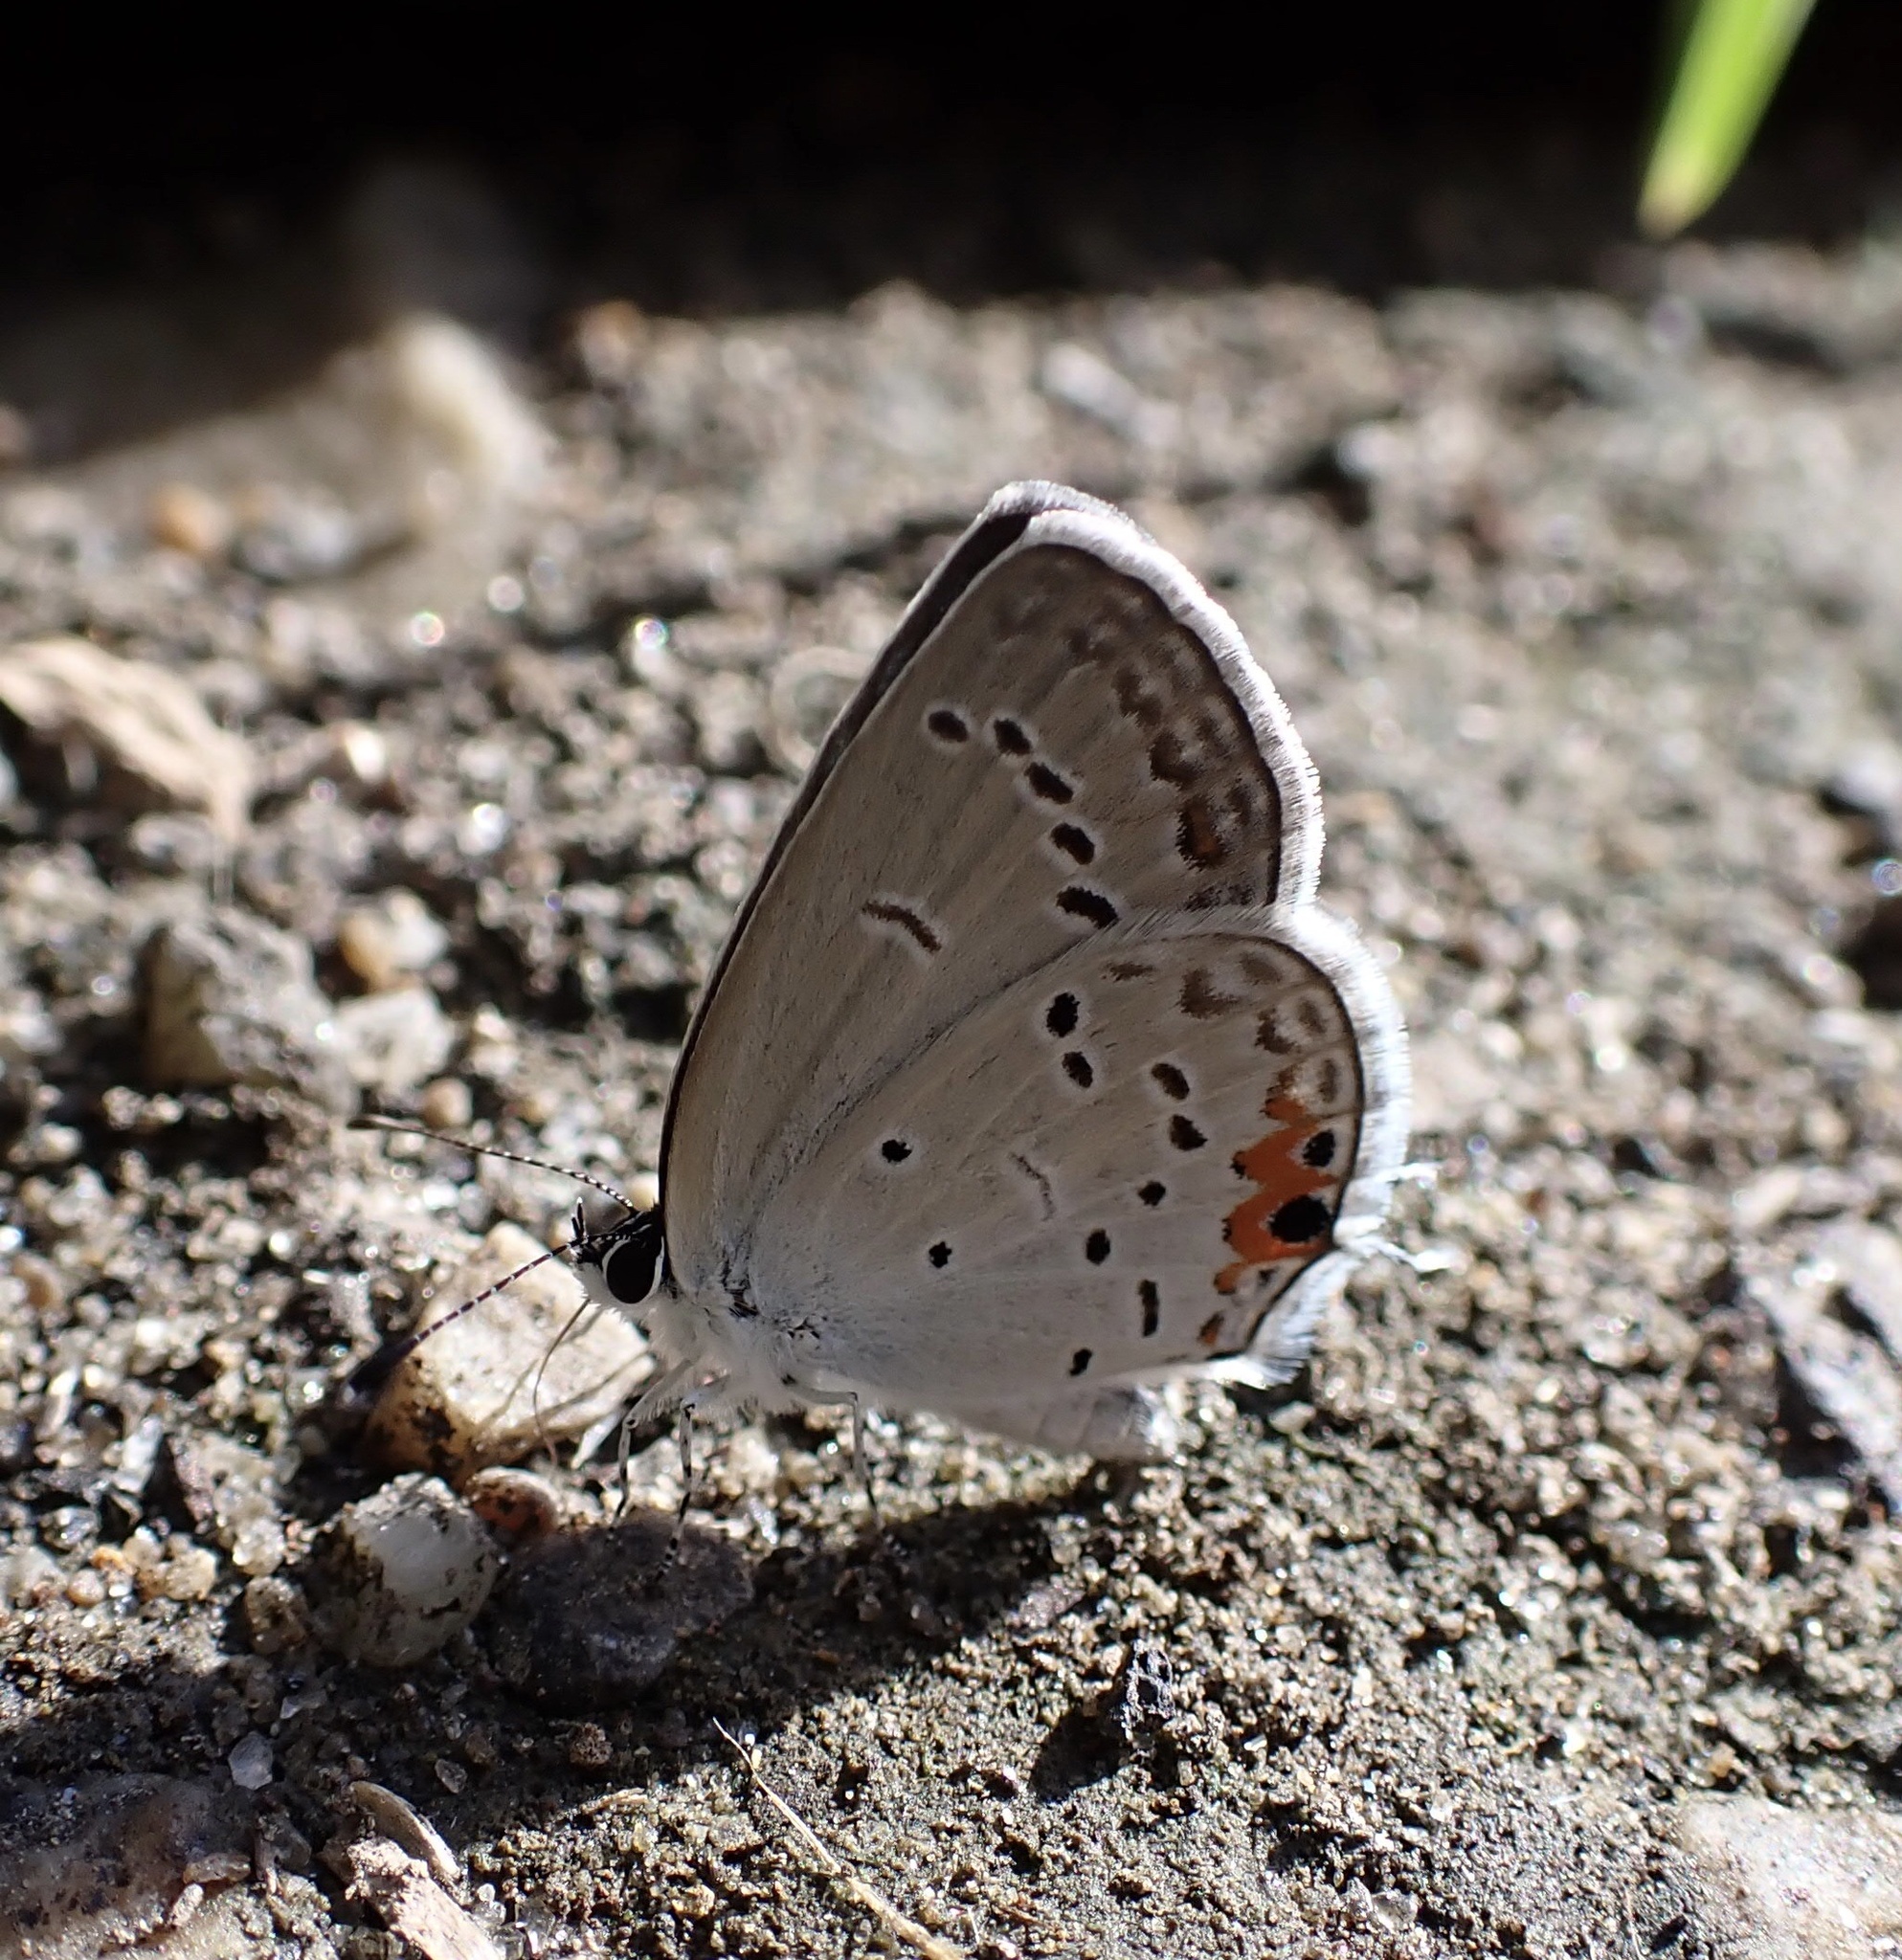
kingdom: Animalia
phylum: Arthropoda
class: Insecta
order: Lepidoptera
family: Lycaenidae
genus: Elkalyce
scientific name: Elkalyce comyntas
